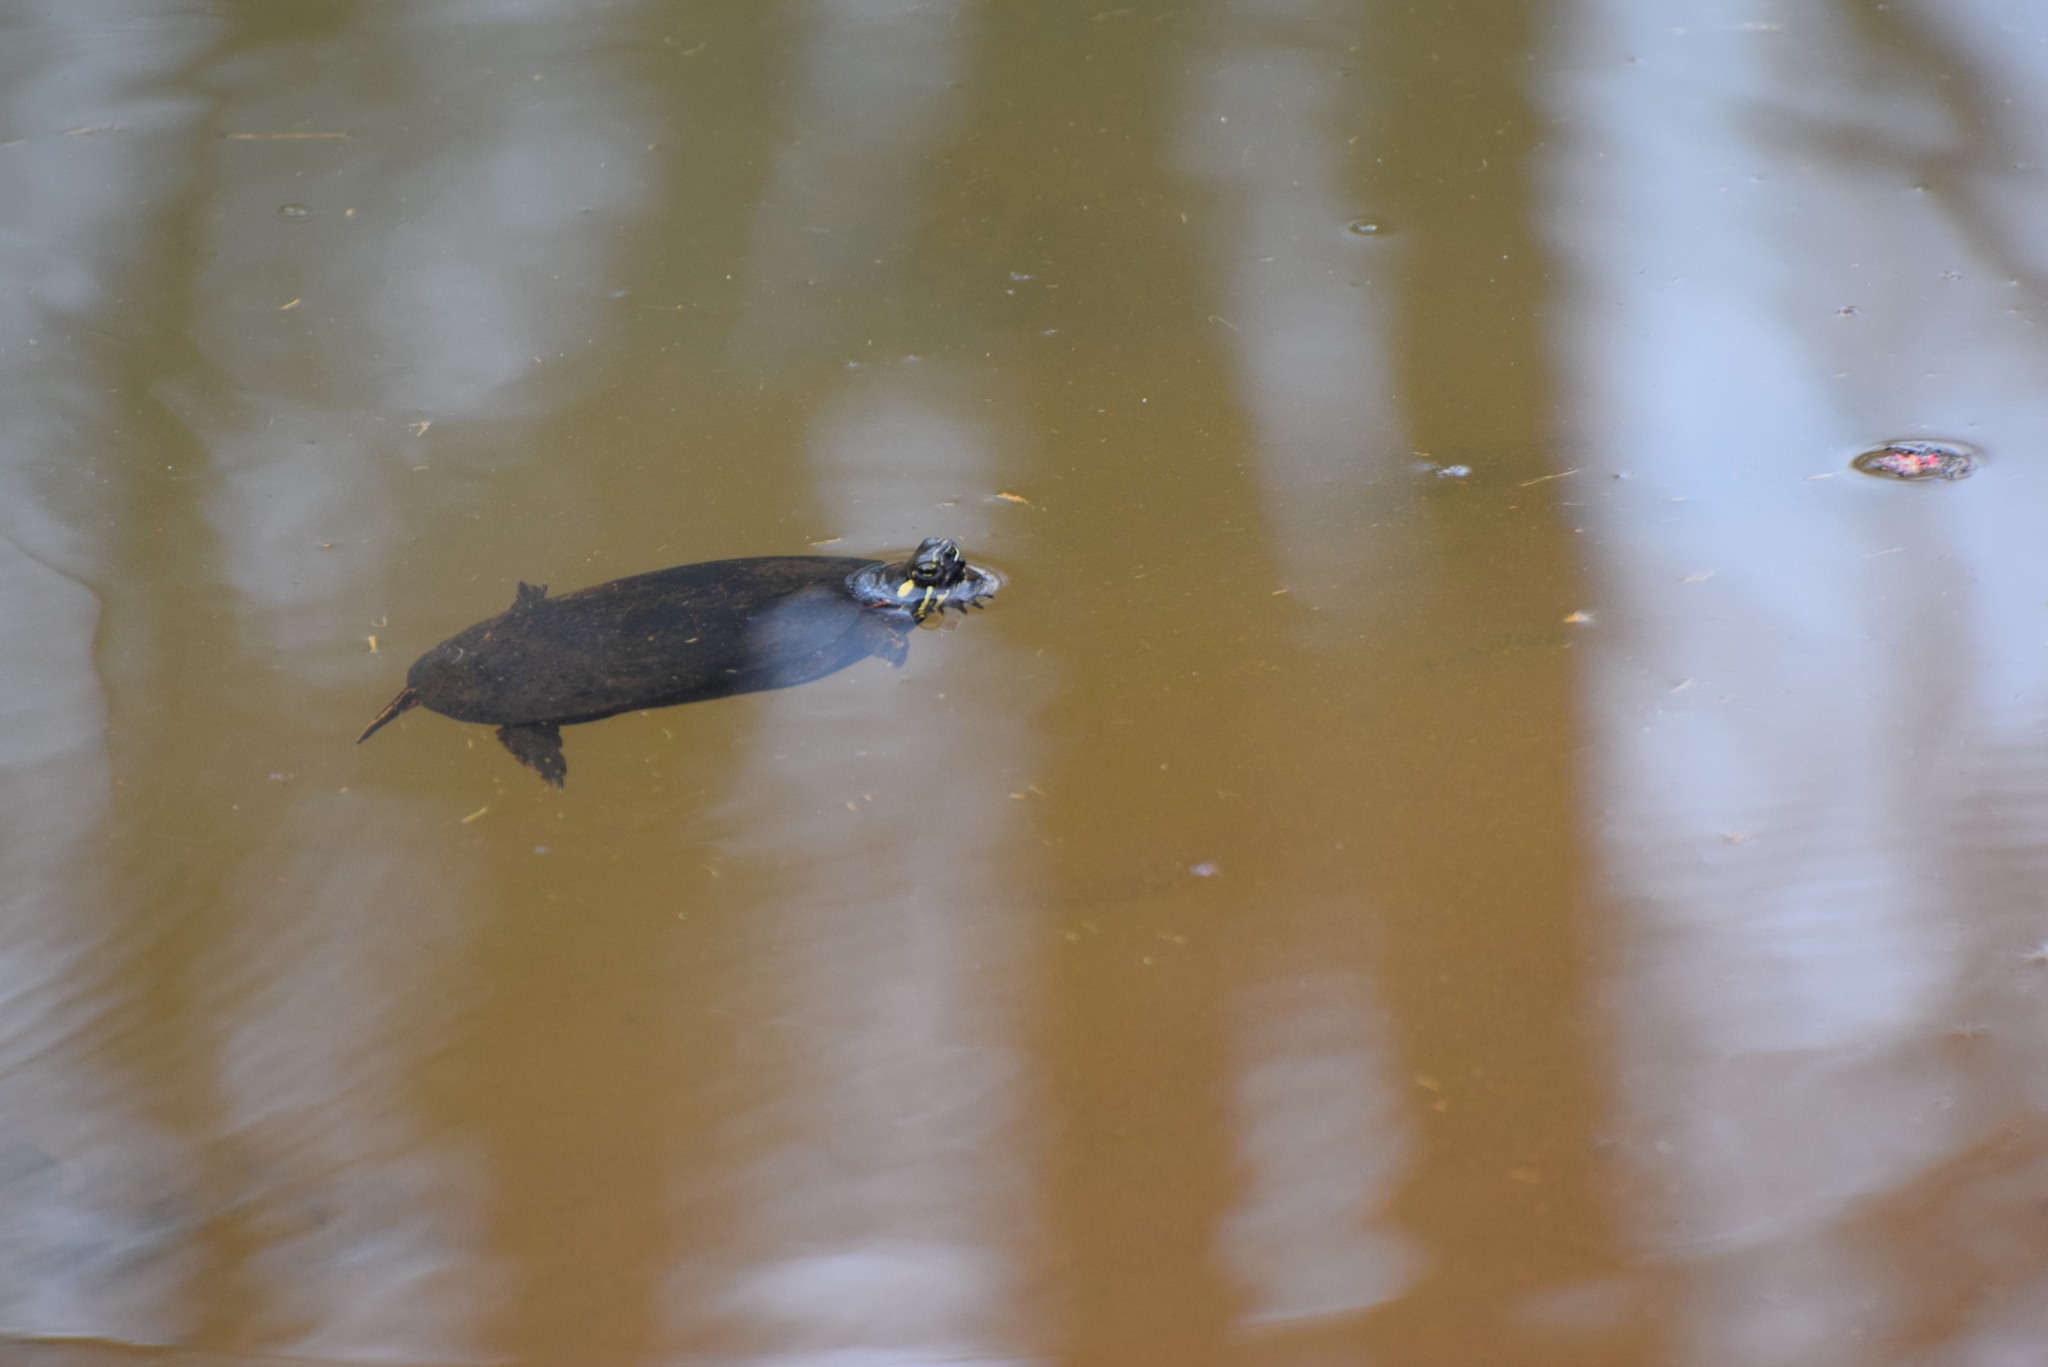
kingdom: Animalia
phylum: Chordata
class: Testudines
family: Emydidae
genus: Chrysemys
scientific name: Chrysemys picta
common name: Painted turtle
